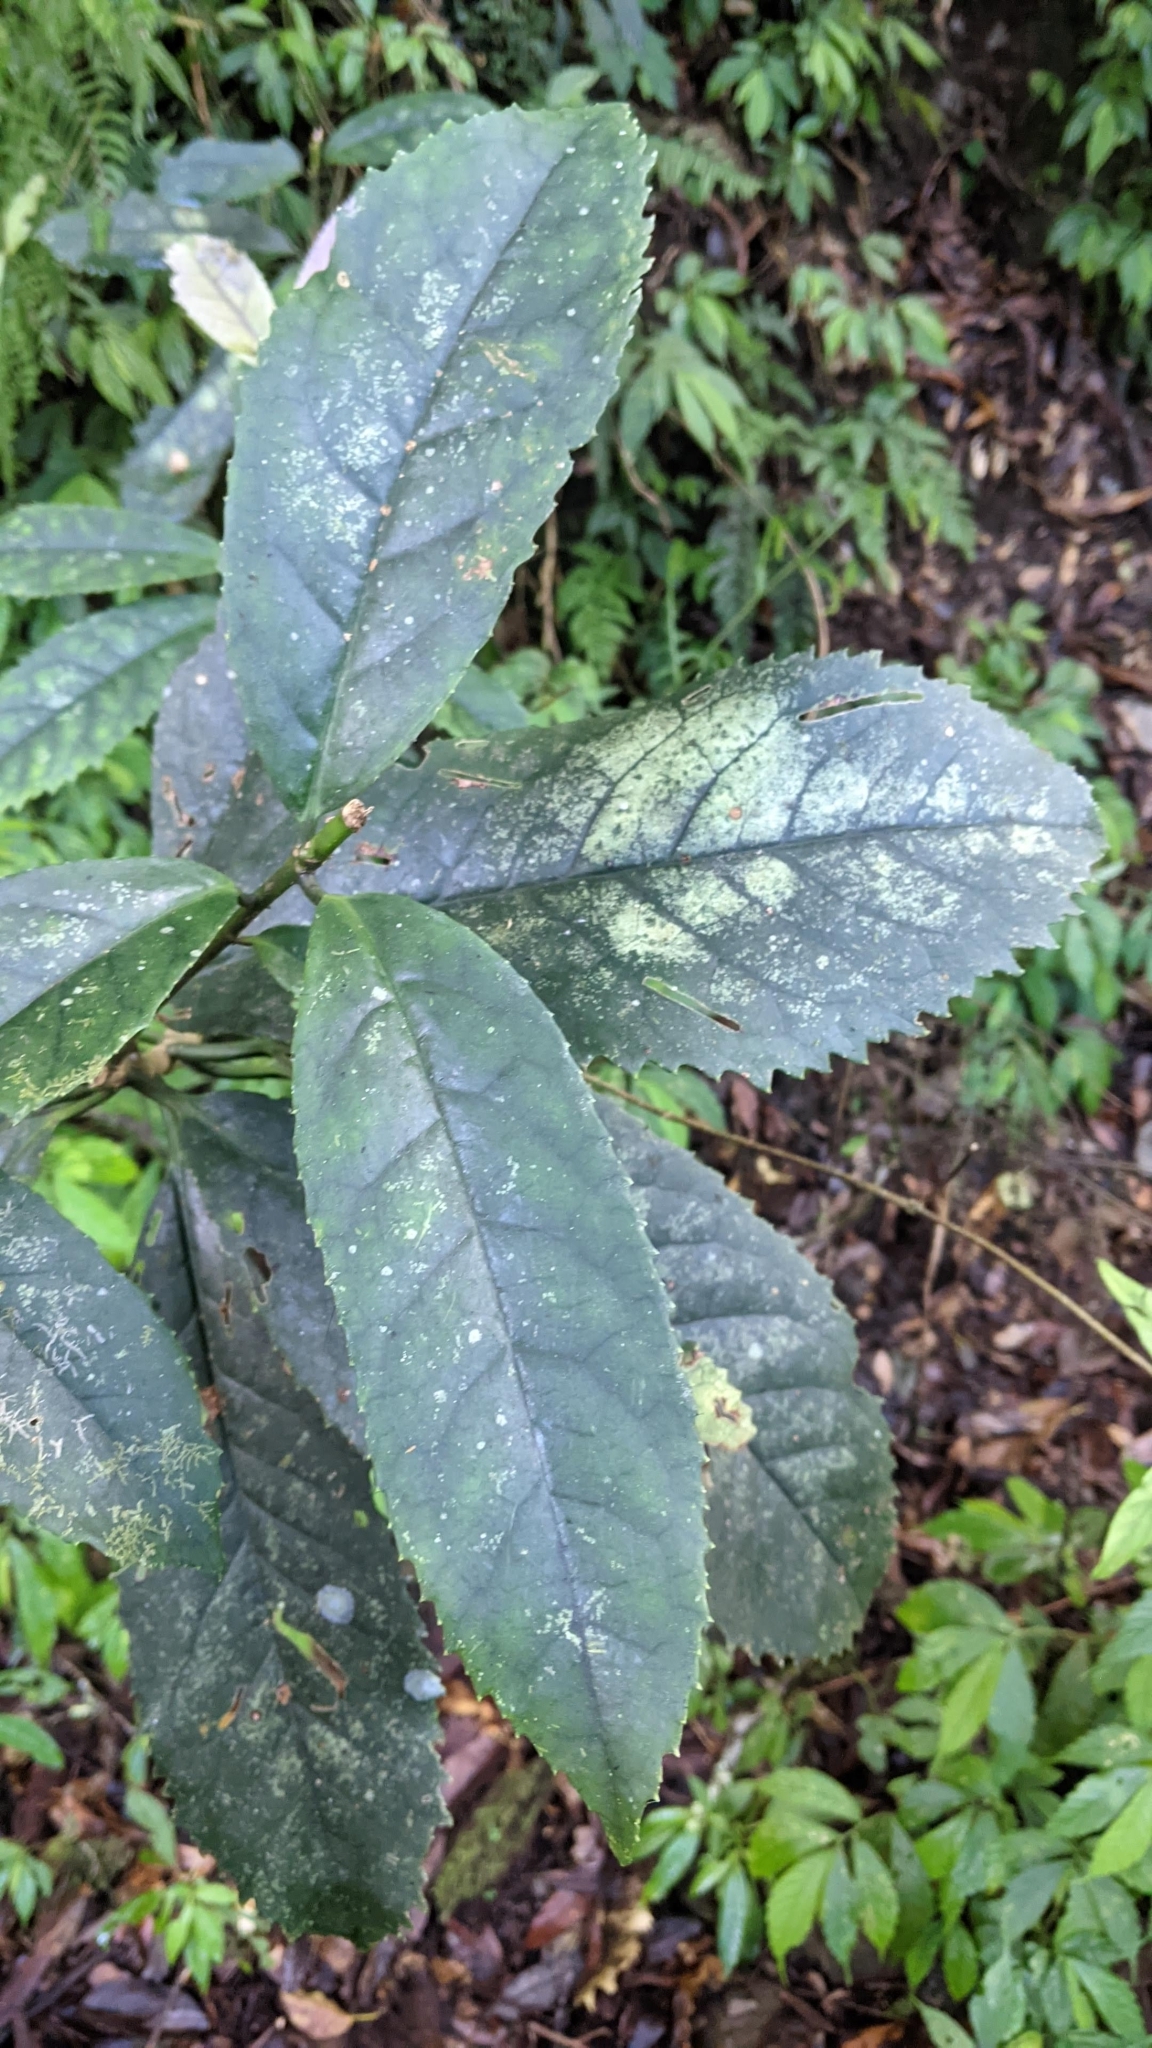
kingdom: Plantae
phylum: Tracheophyta
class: Magnoliopsida
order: Ericales
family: Symplocaceae
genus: Symplocos
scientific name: Symplocos acuminata
